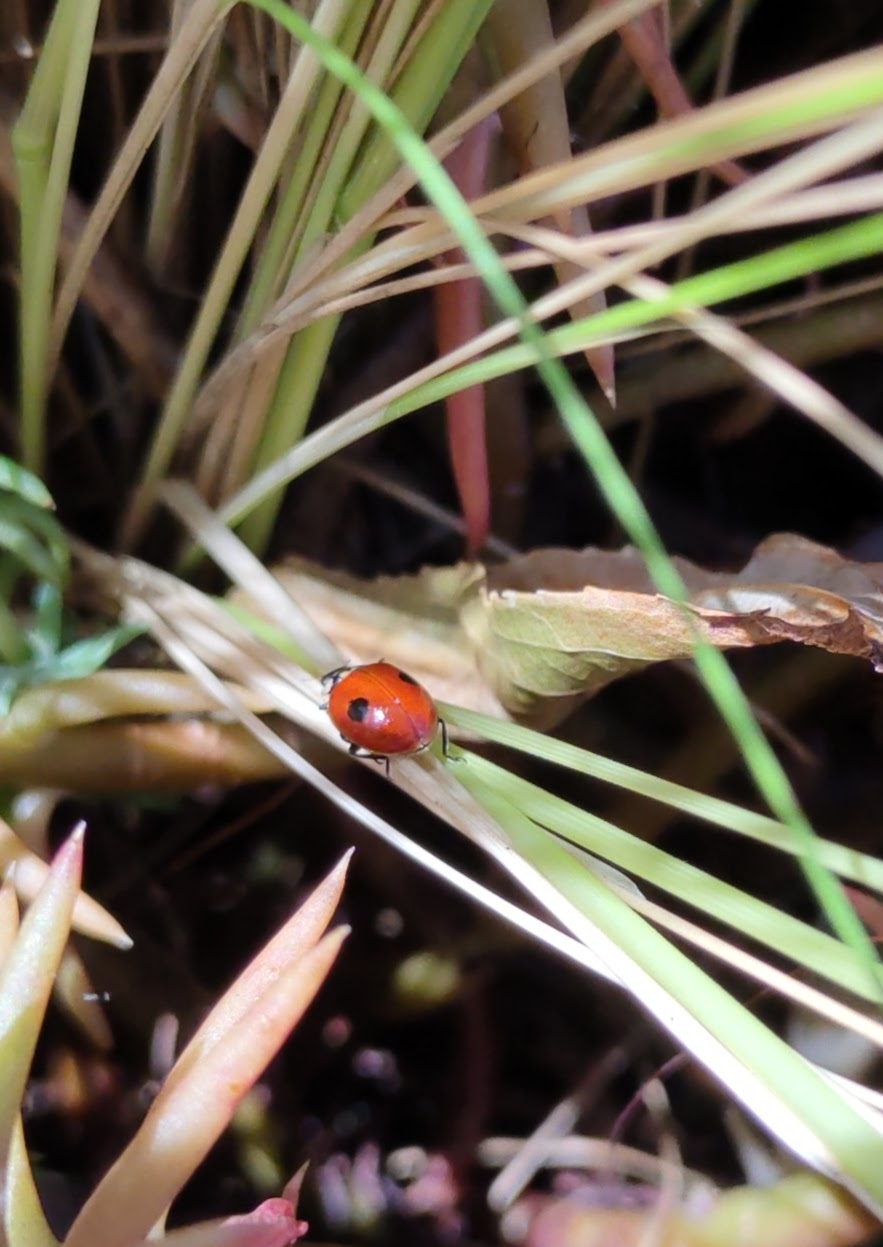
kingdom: Animalia
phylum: Arthropoda
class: Insecta
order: Coleoptera
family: Coccinellidae
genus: Adalia
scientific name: Adalia bipunctata
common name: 2-spot ladybird
